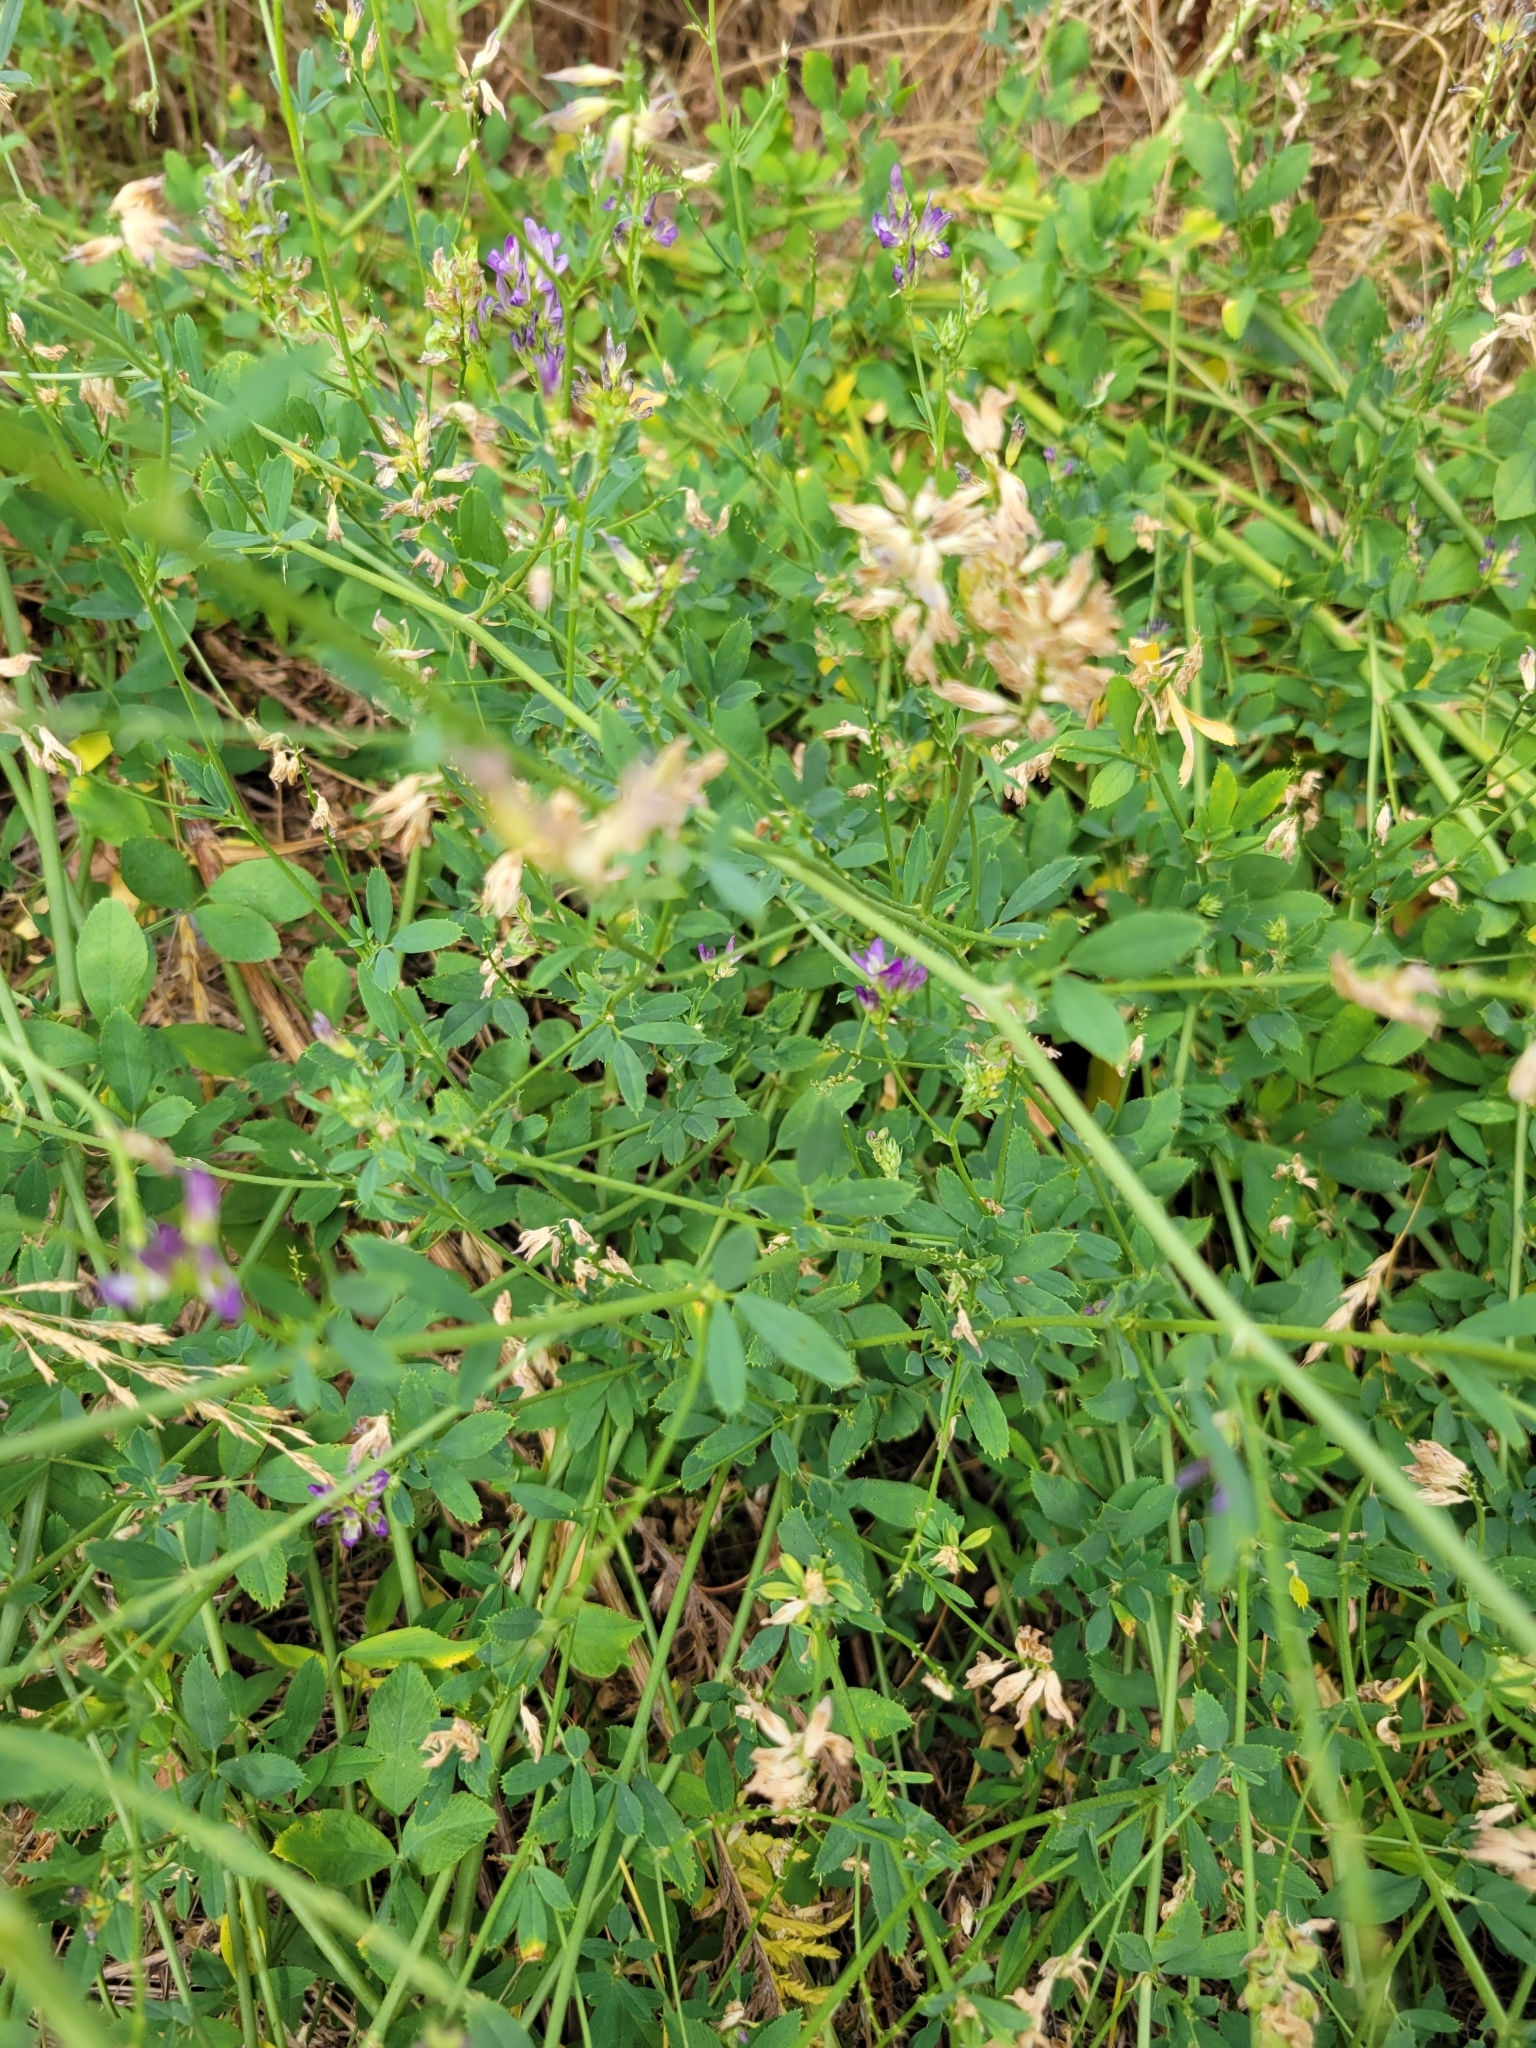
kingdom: Plantae
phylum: Tracheophyta
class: Magnoliopsida
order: Fabales
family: Fabaceae
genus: Medicago
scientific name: Medicago sativa
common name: Alfalfa
